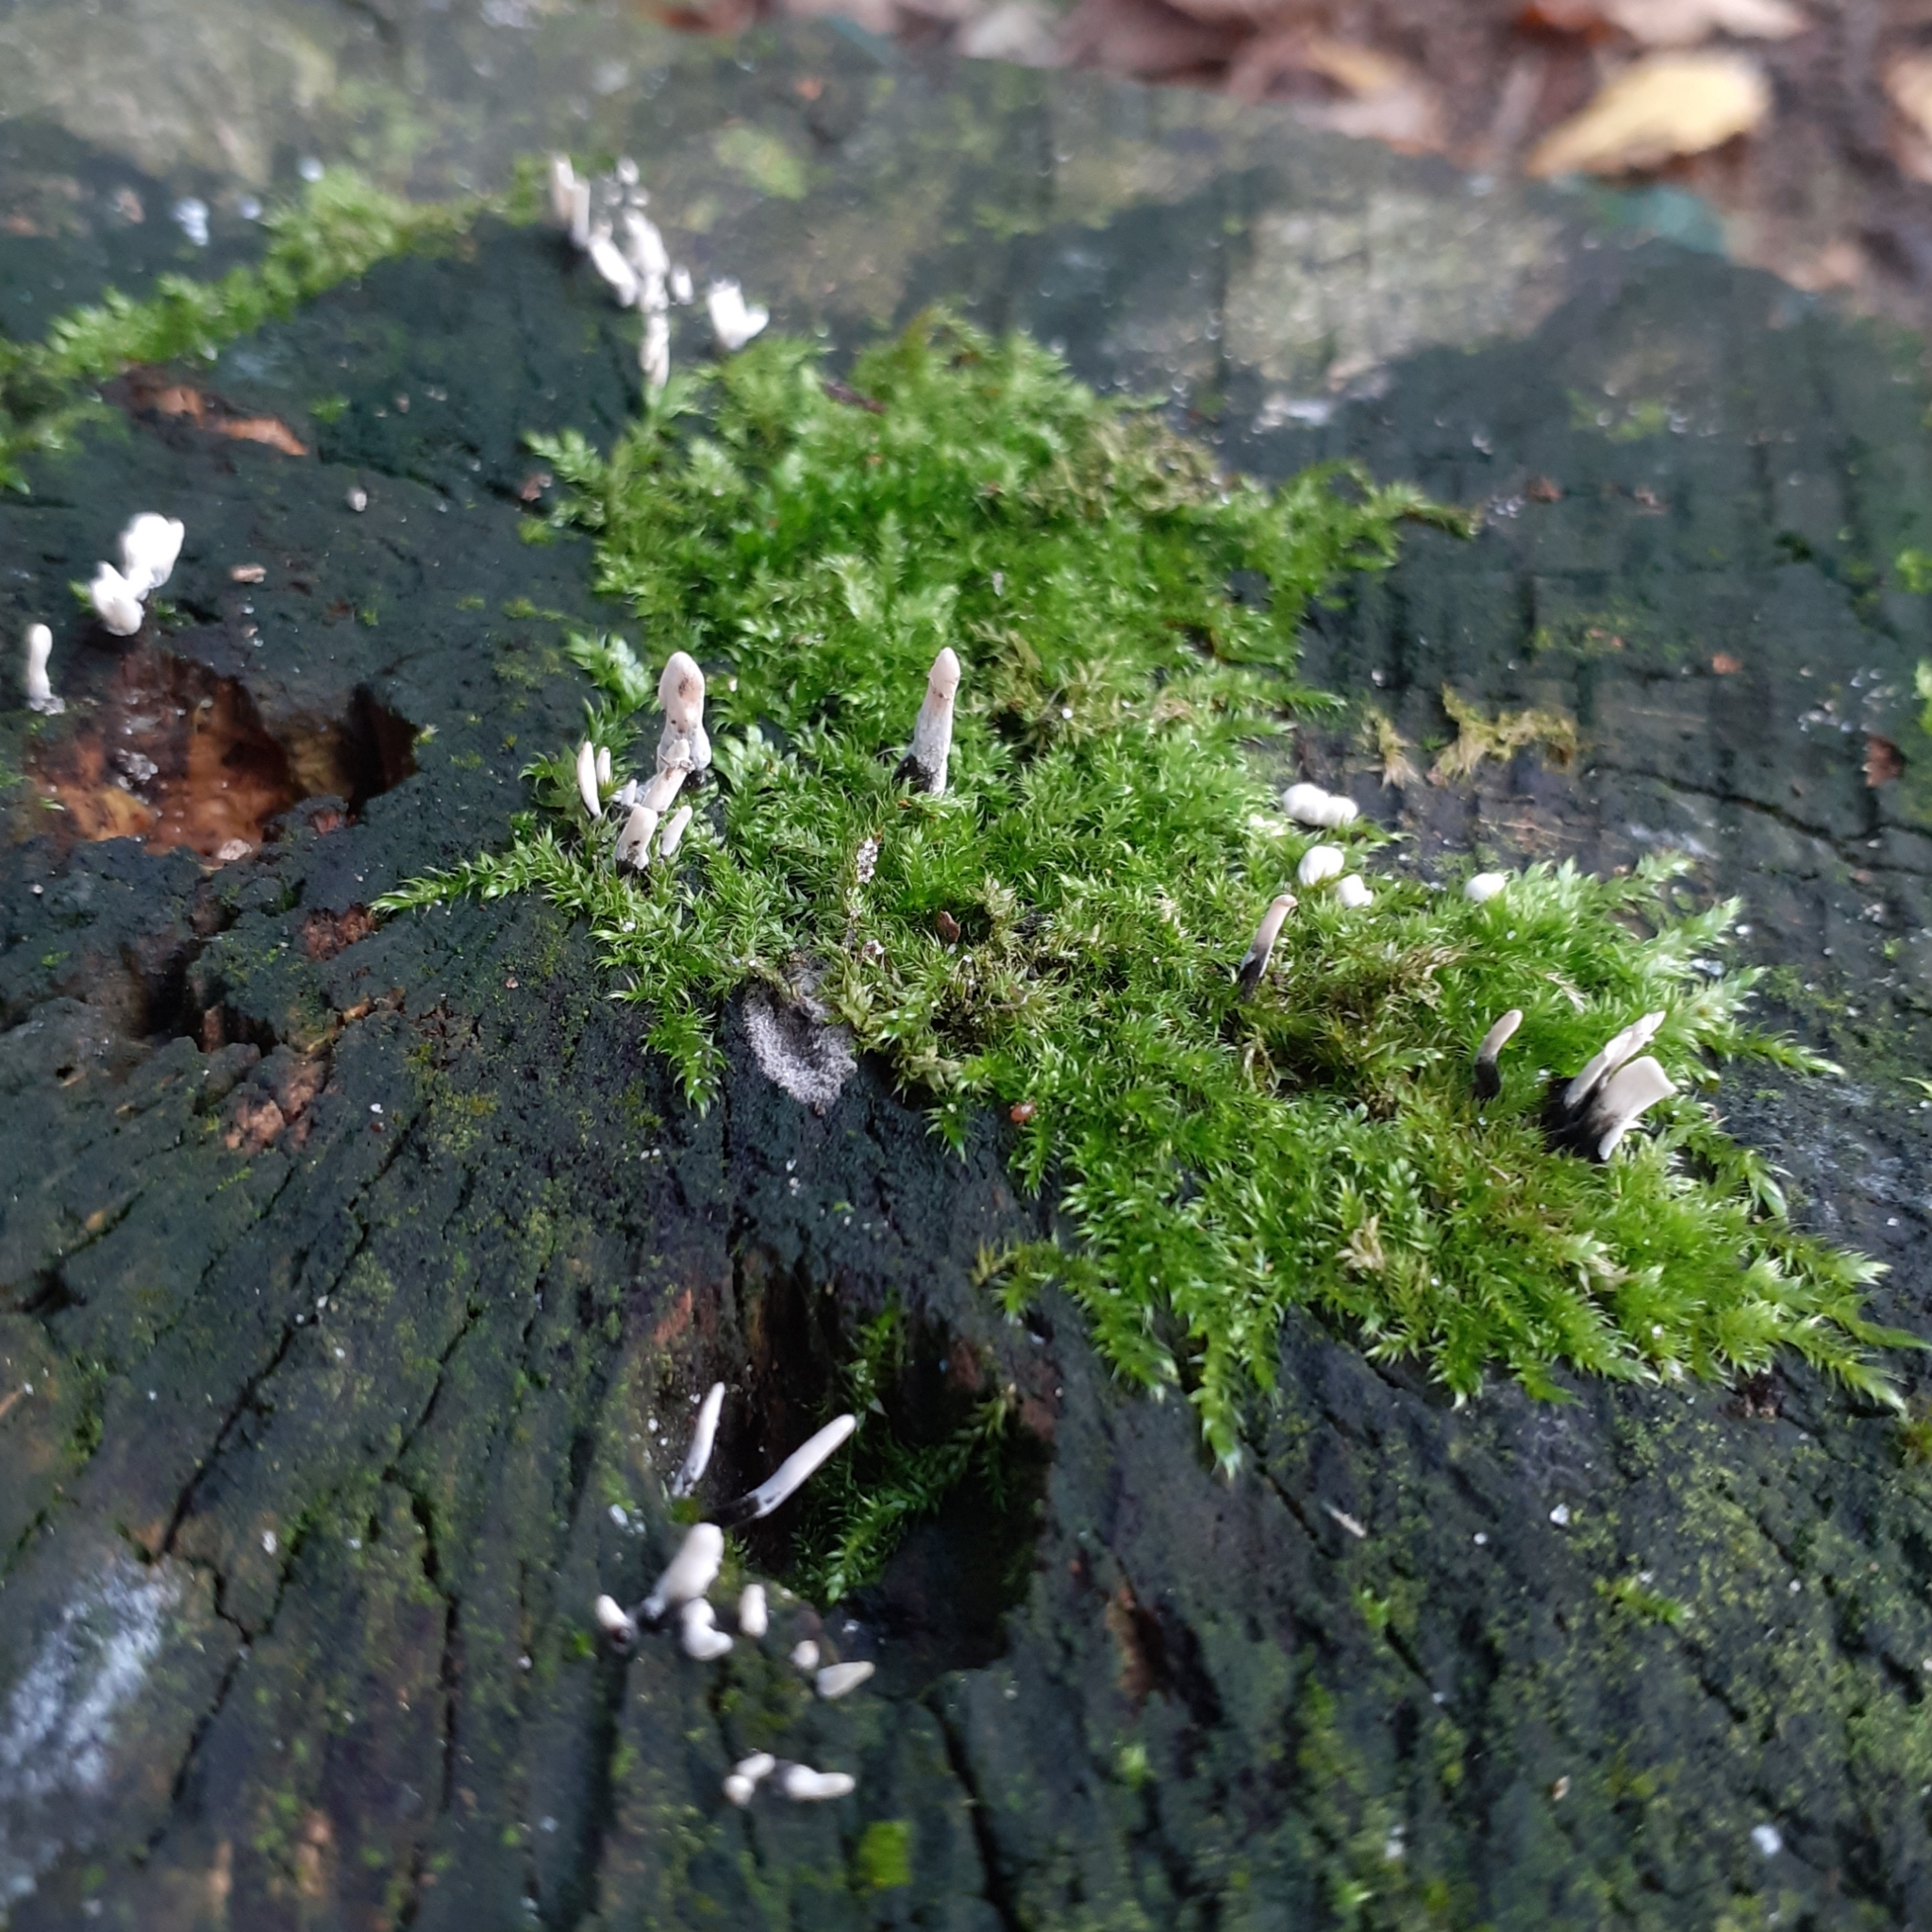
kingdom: Fungi
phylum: Ascomycota
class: Sordariomycetes
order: Xylariales
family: Xylariaceae
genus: Xylaria
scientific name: Xylaria hypoxylon
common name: Candle-snuff fungus
